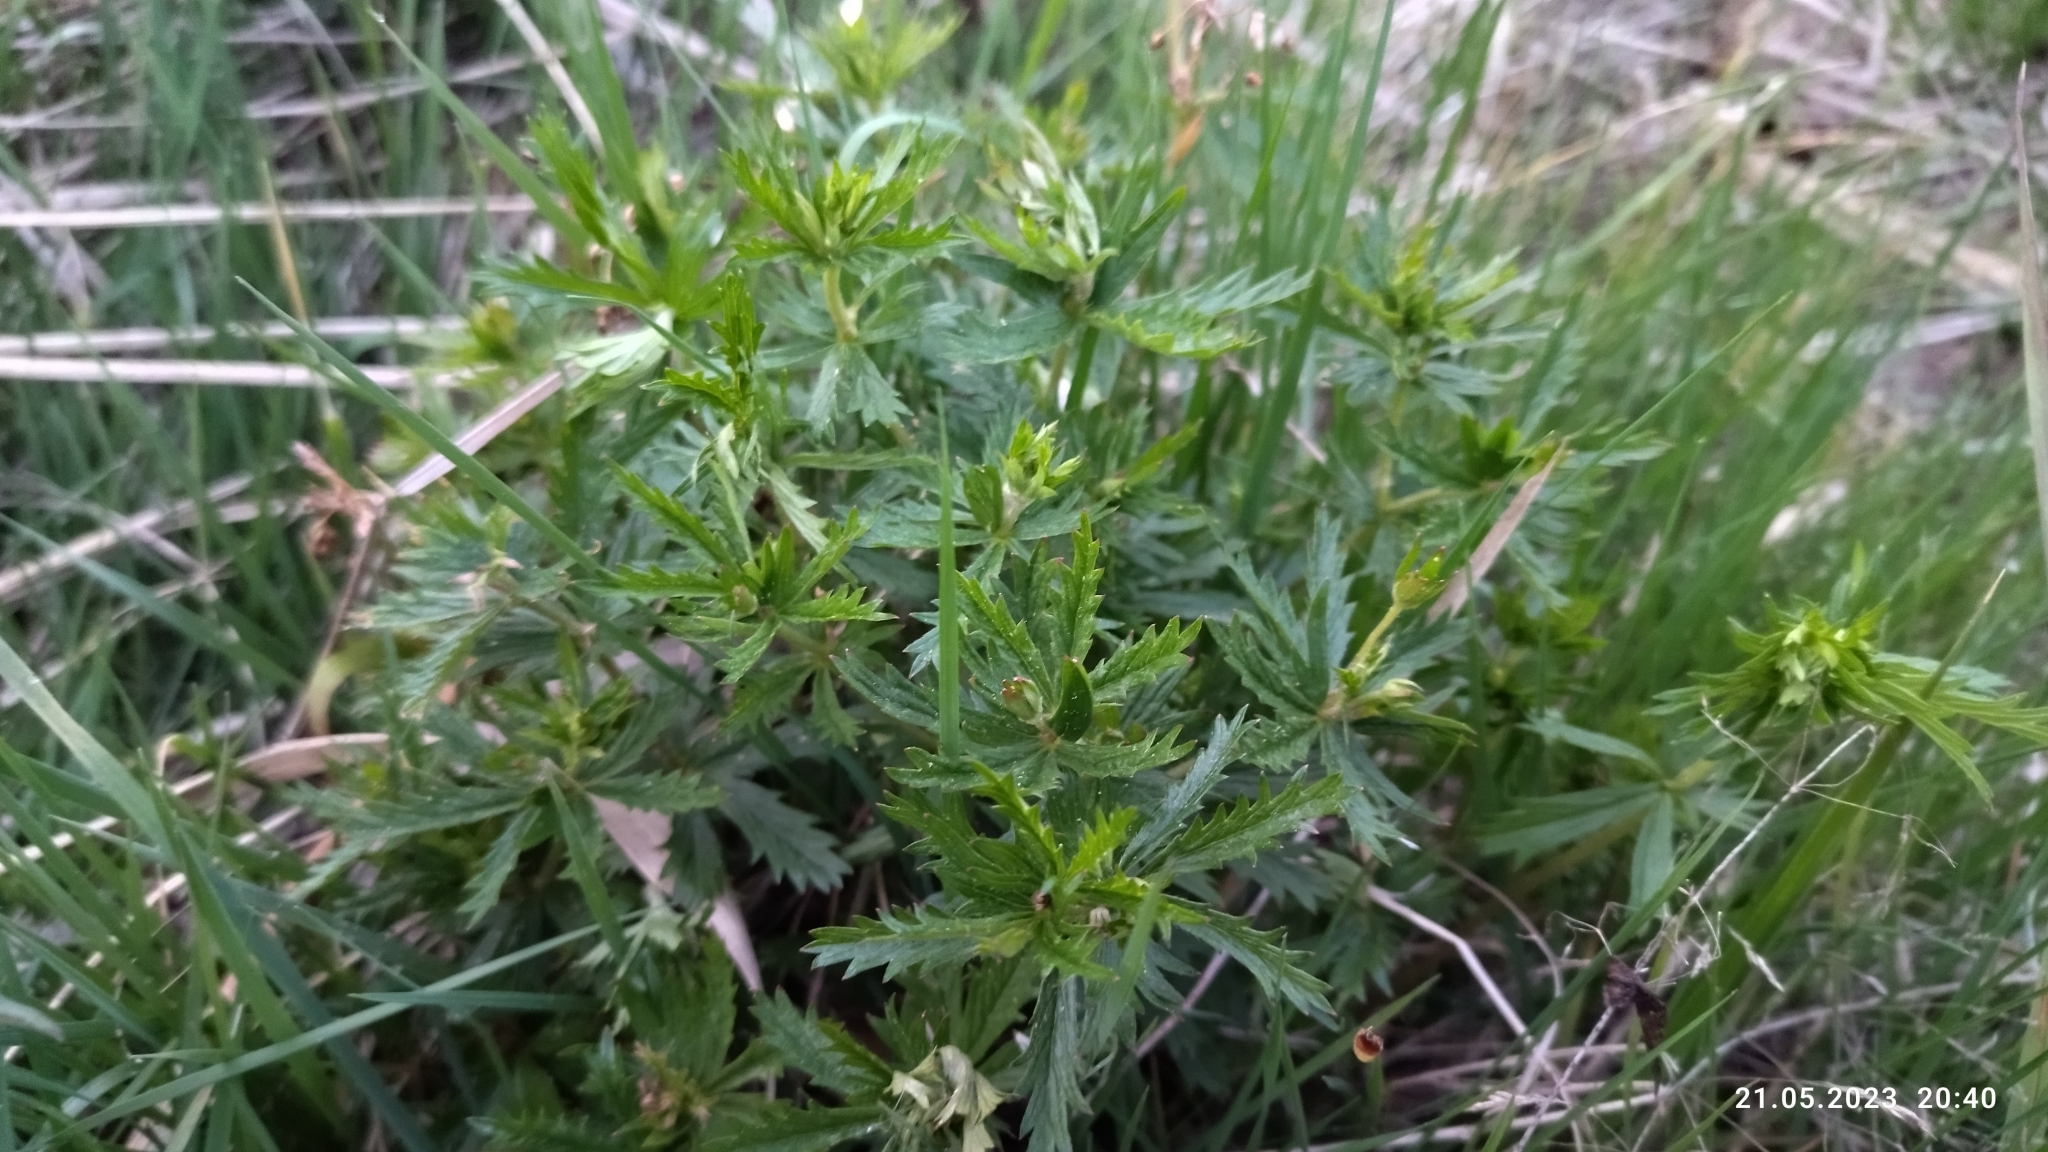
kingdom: Plantae
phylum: Tracheophyta
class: Magnoliopsida
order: Rosales
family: Rosaceae
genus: Potentilla
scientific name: Potentilla erecta
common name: Tormentil
